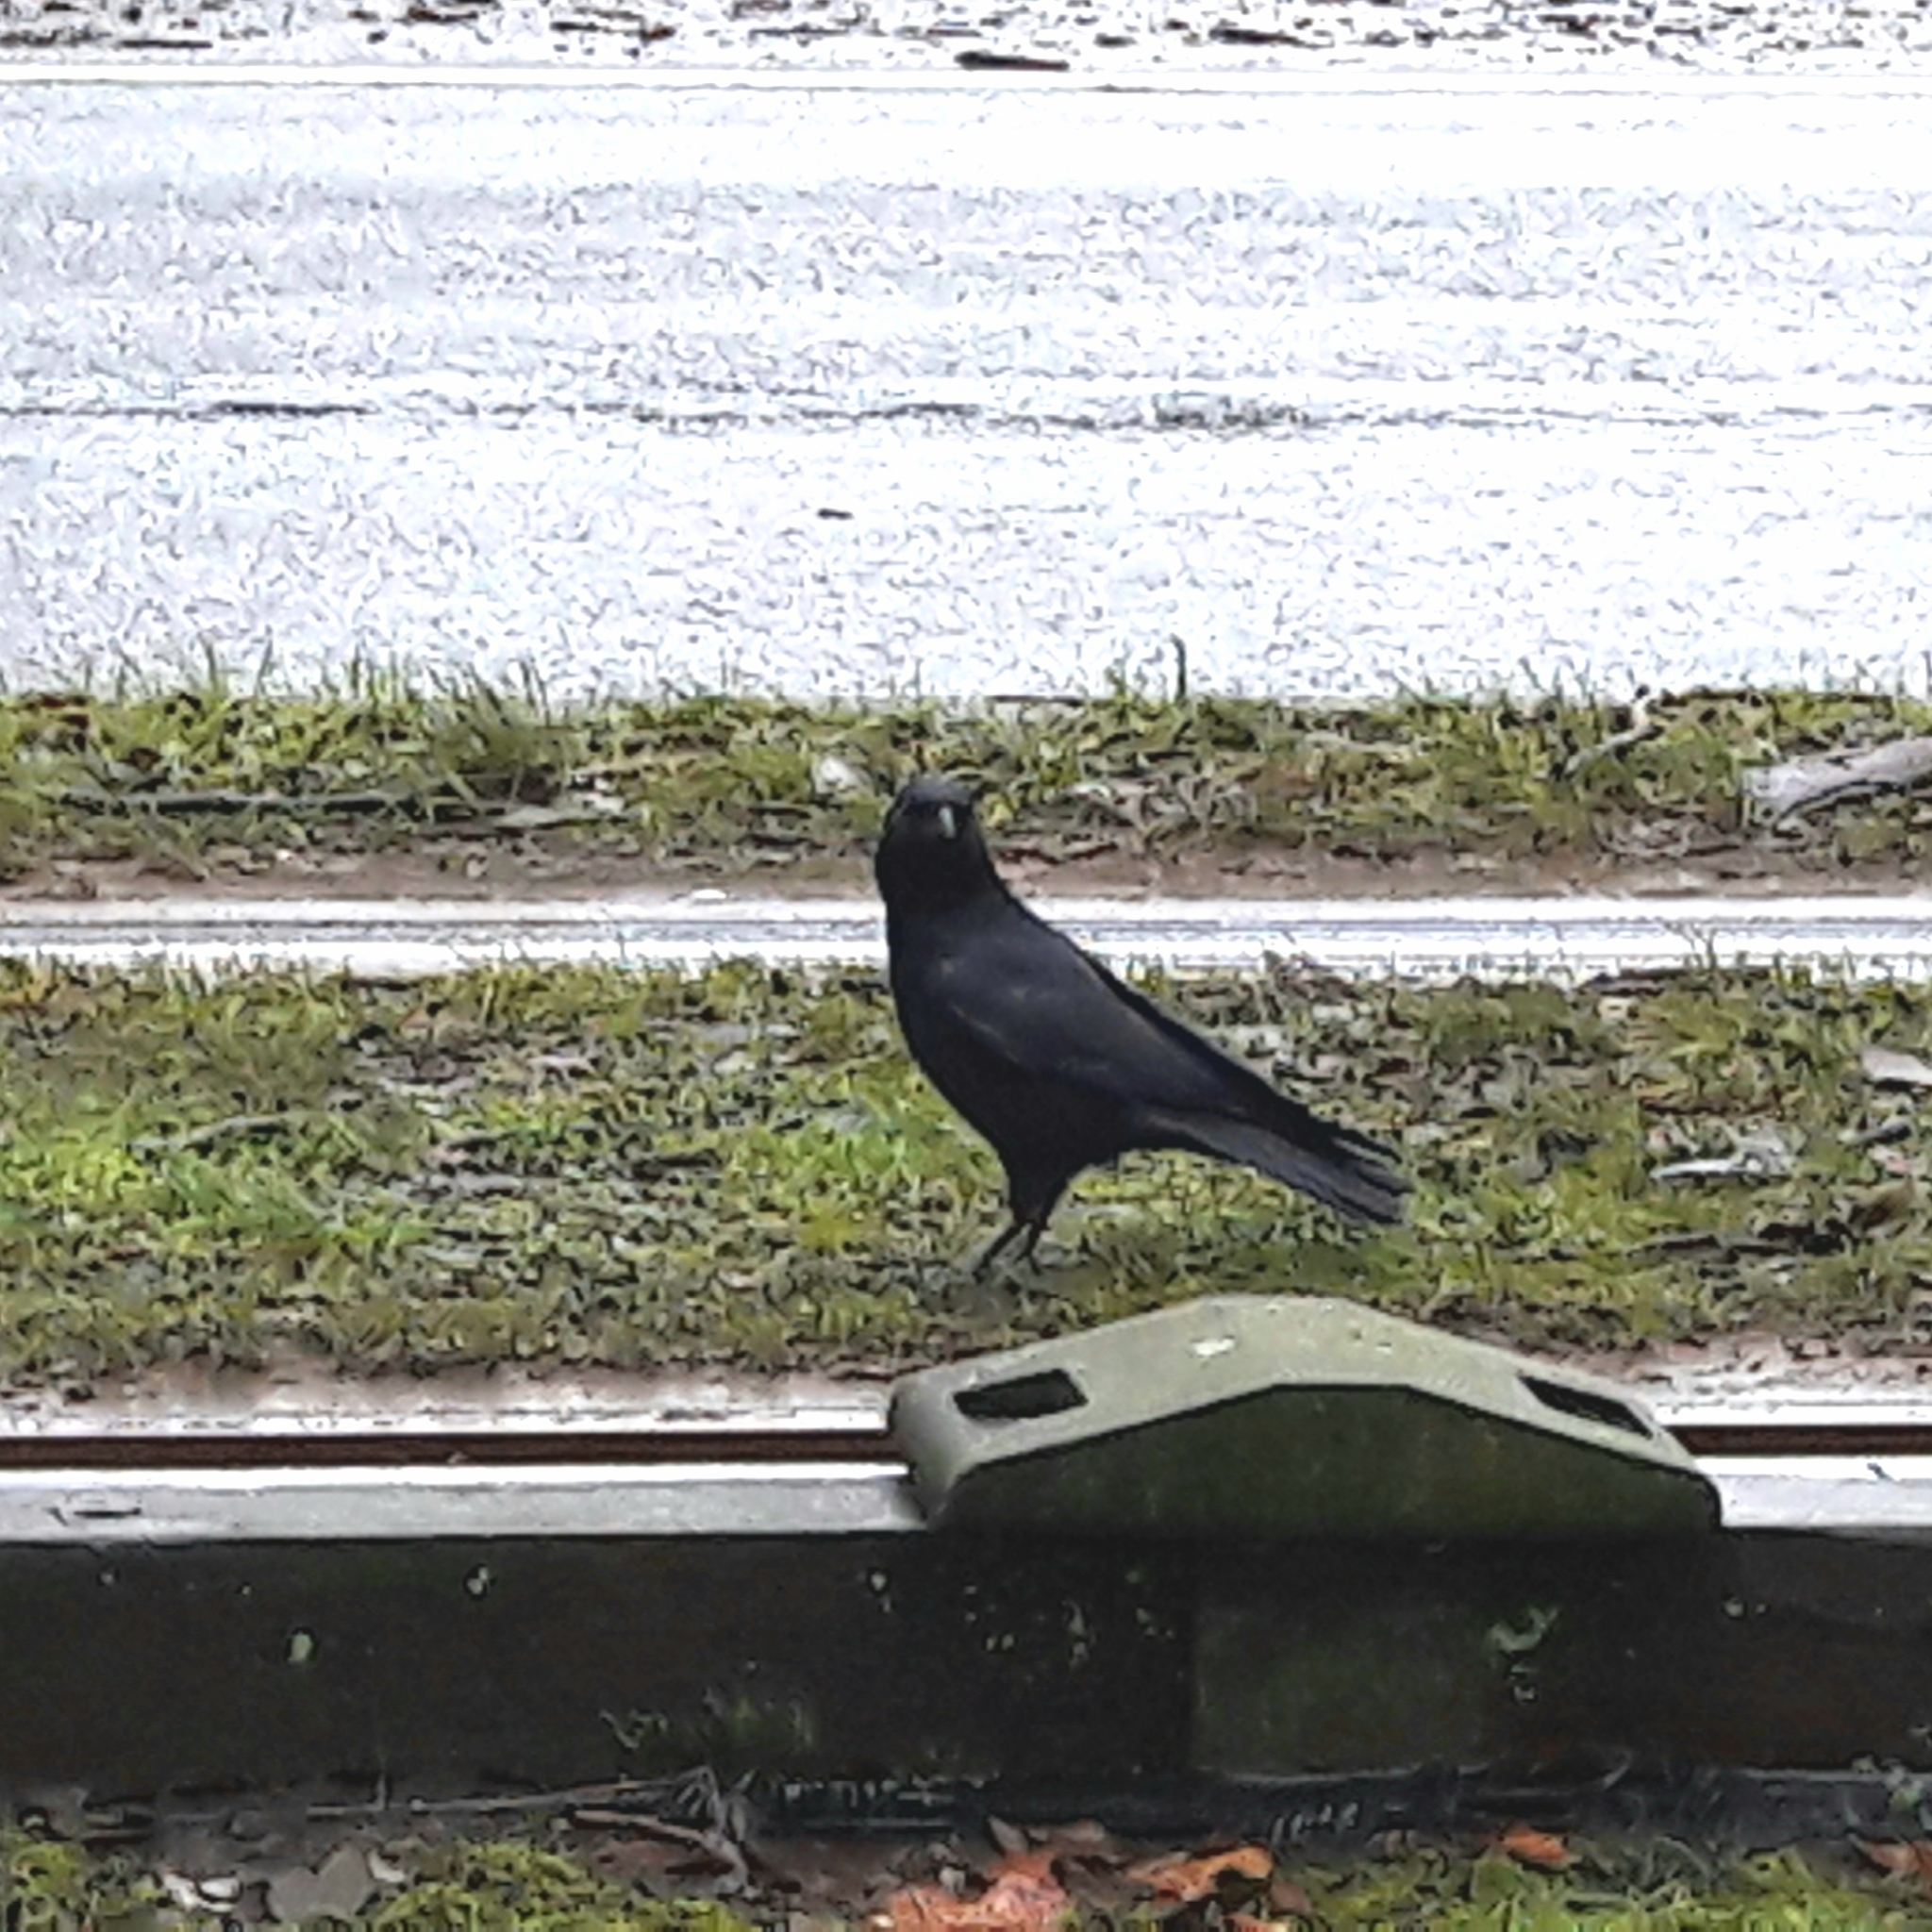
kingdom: Animalia
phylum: Chordata
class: Aves
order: Passeriformes
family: Corvidae
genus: Corvus
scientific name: Corvus corone
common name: Carrion crow
